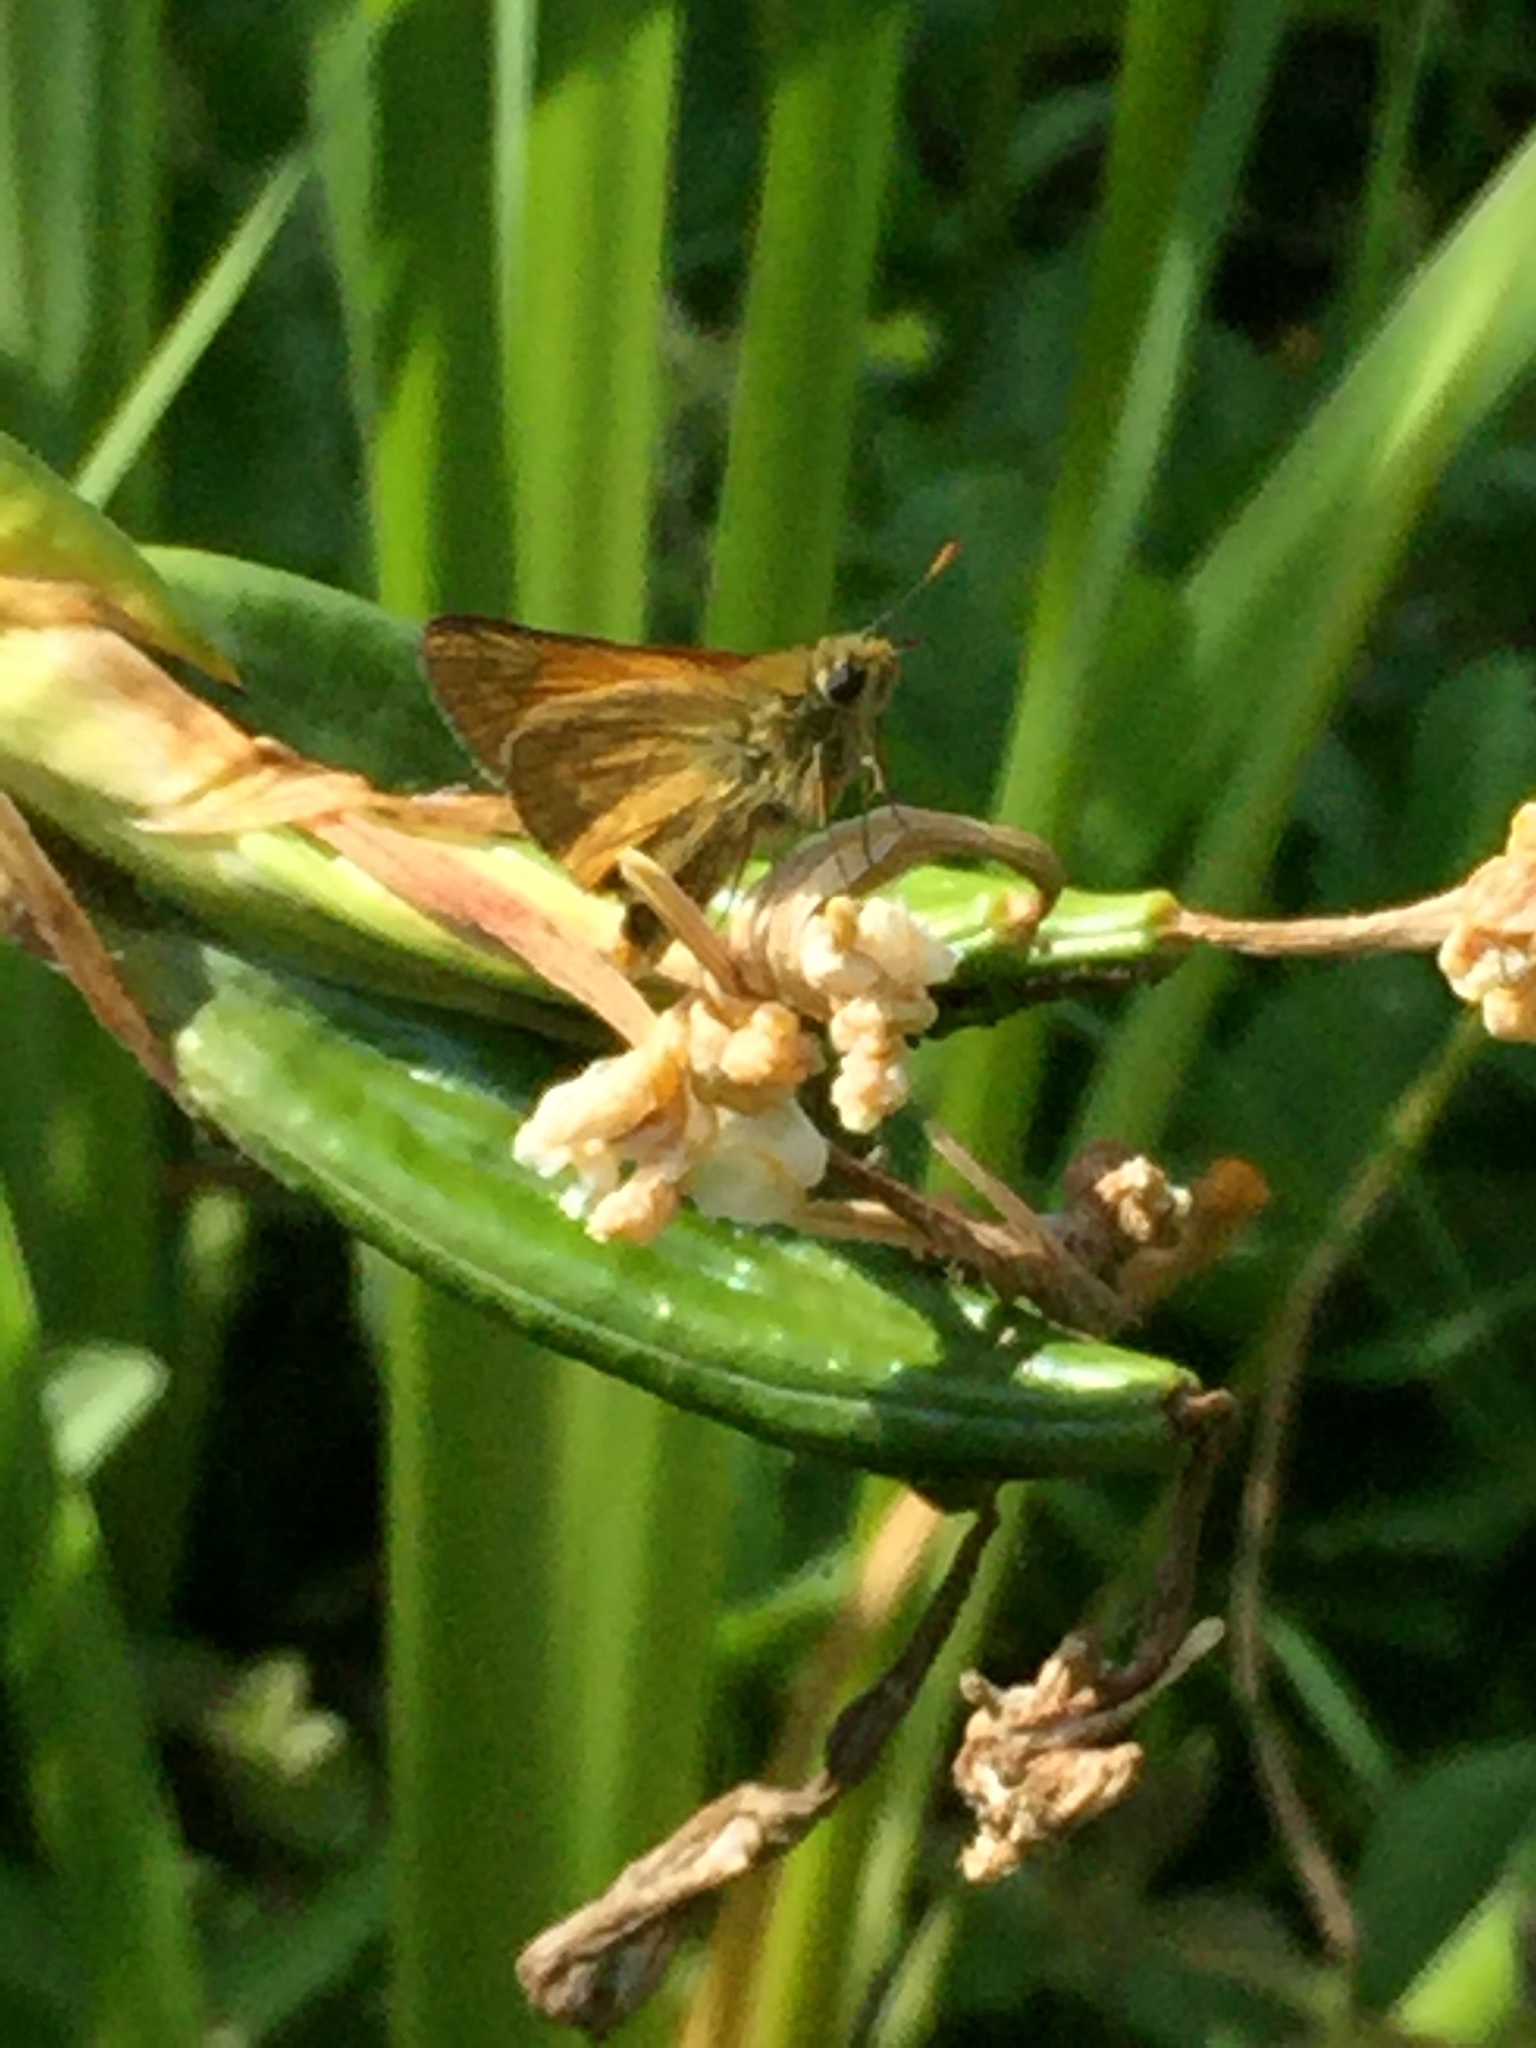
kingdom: Animalia
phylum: Arthropoda
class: Insecta
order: Lepidoptera
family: Hesperiidae
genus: Ochlodes
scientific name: Ochlodes venata
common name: Large skipper
